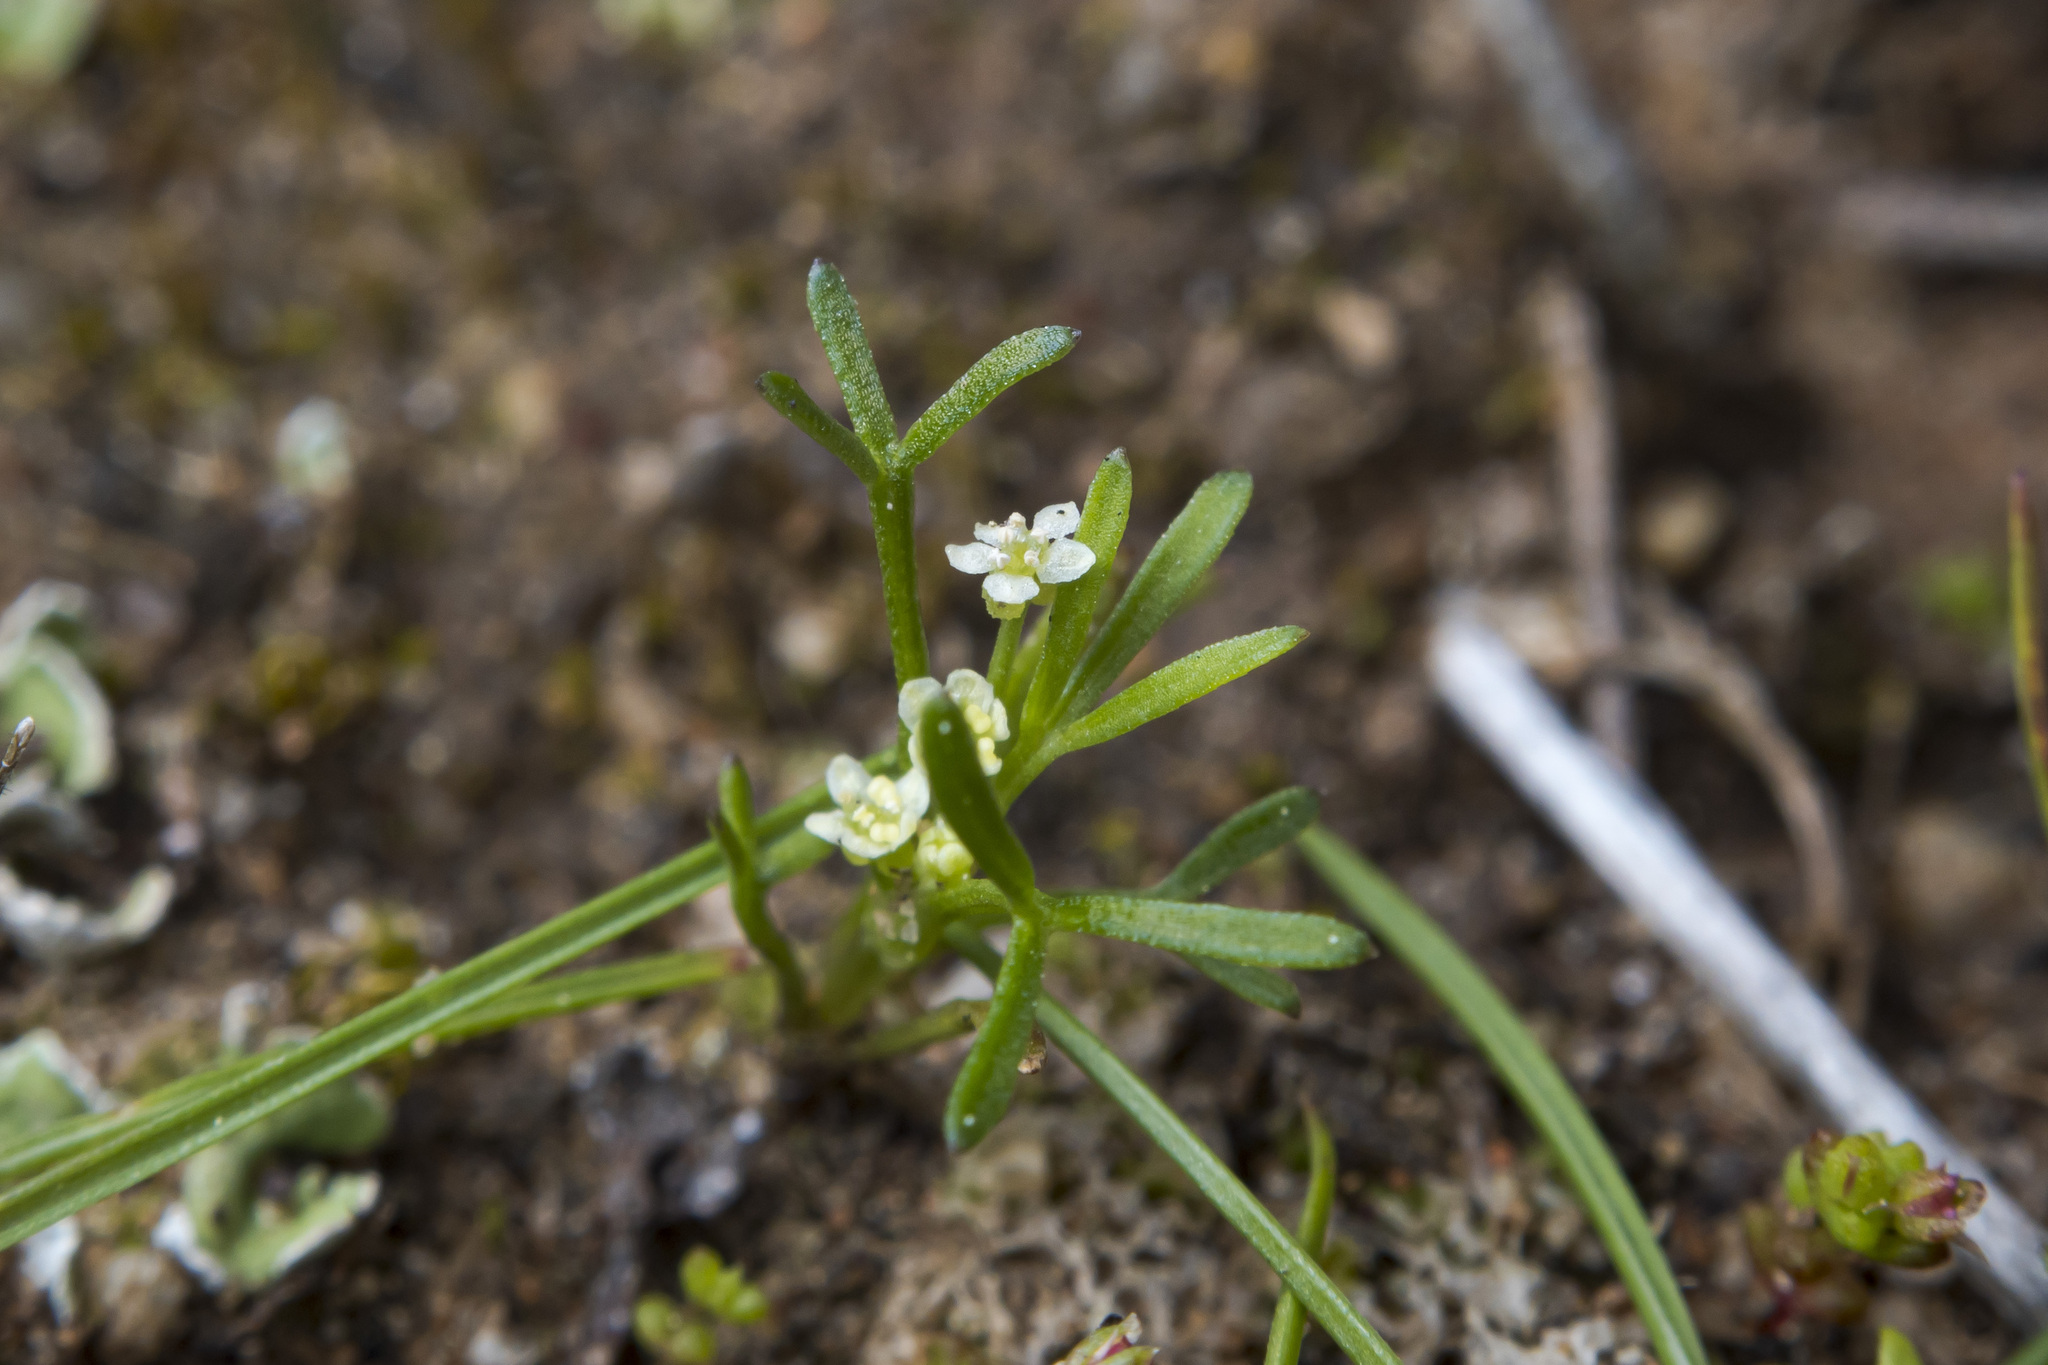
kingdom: Plantae
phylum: Tracheophyta
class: Magnoliopsida
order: Apiales
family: Apiaceae
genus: Apiastrum
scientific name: Apiastrum angustifolium
